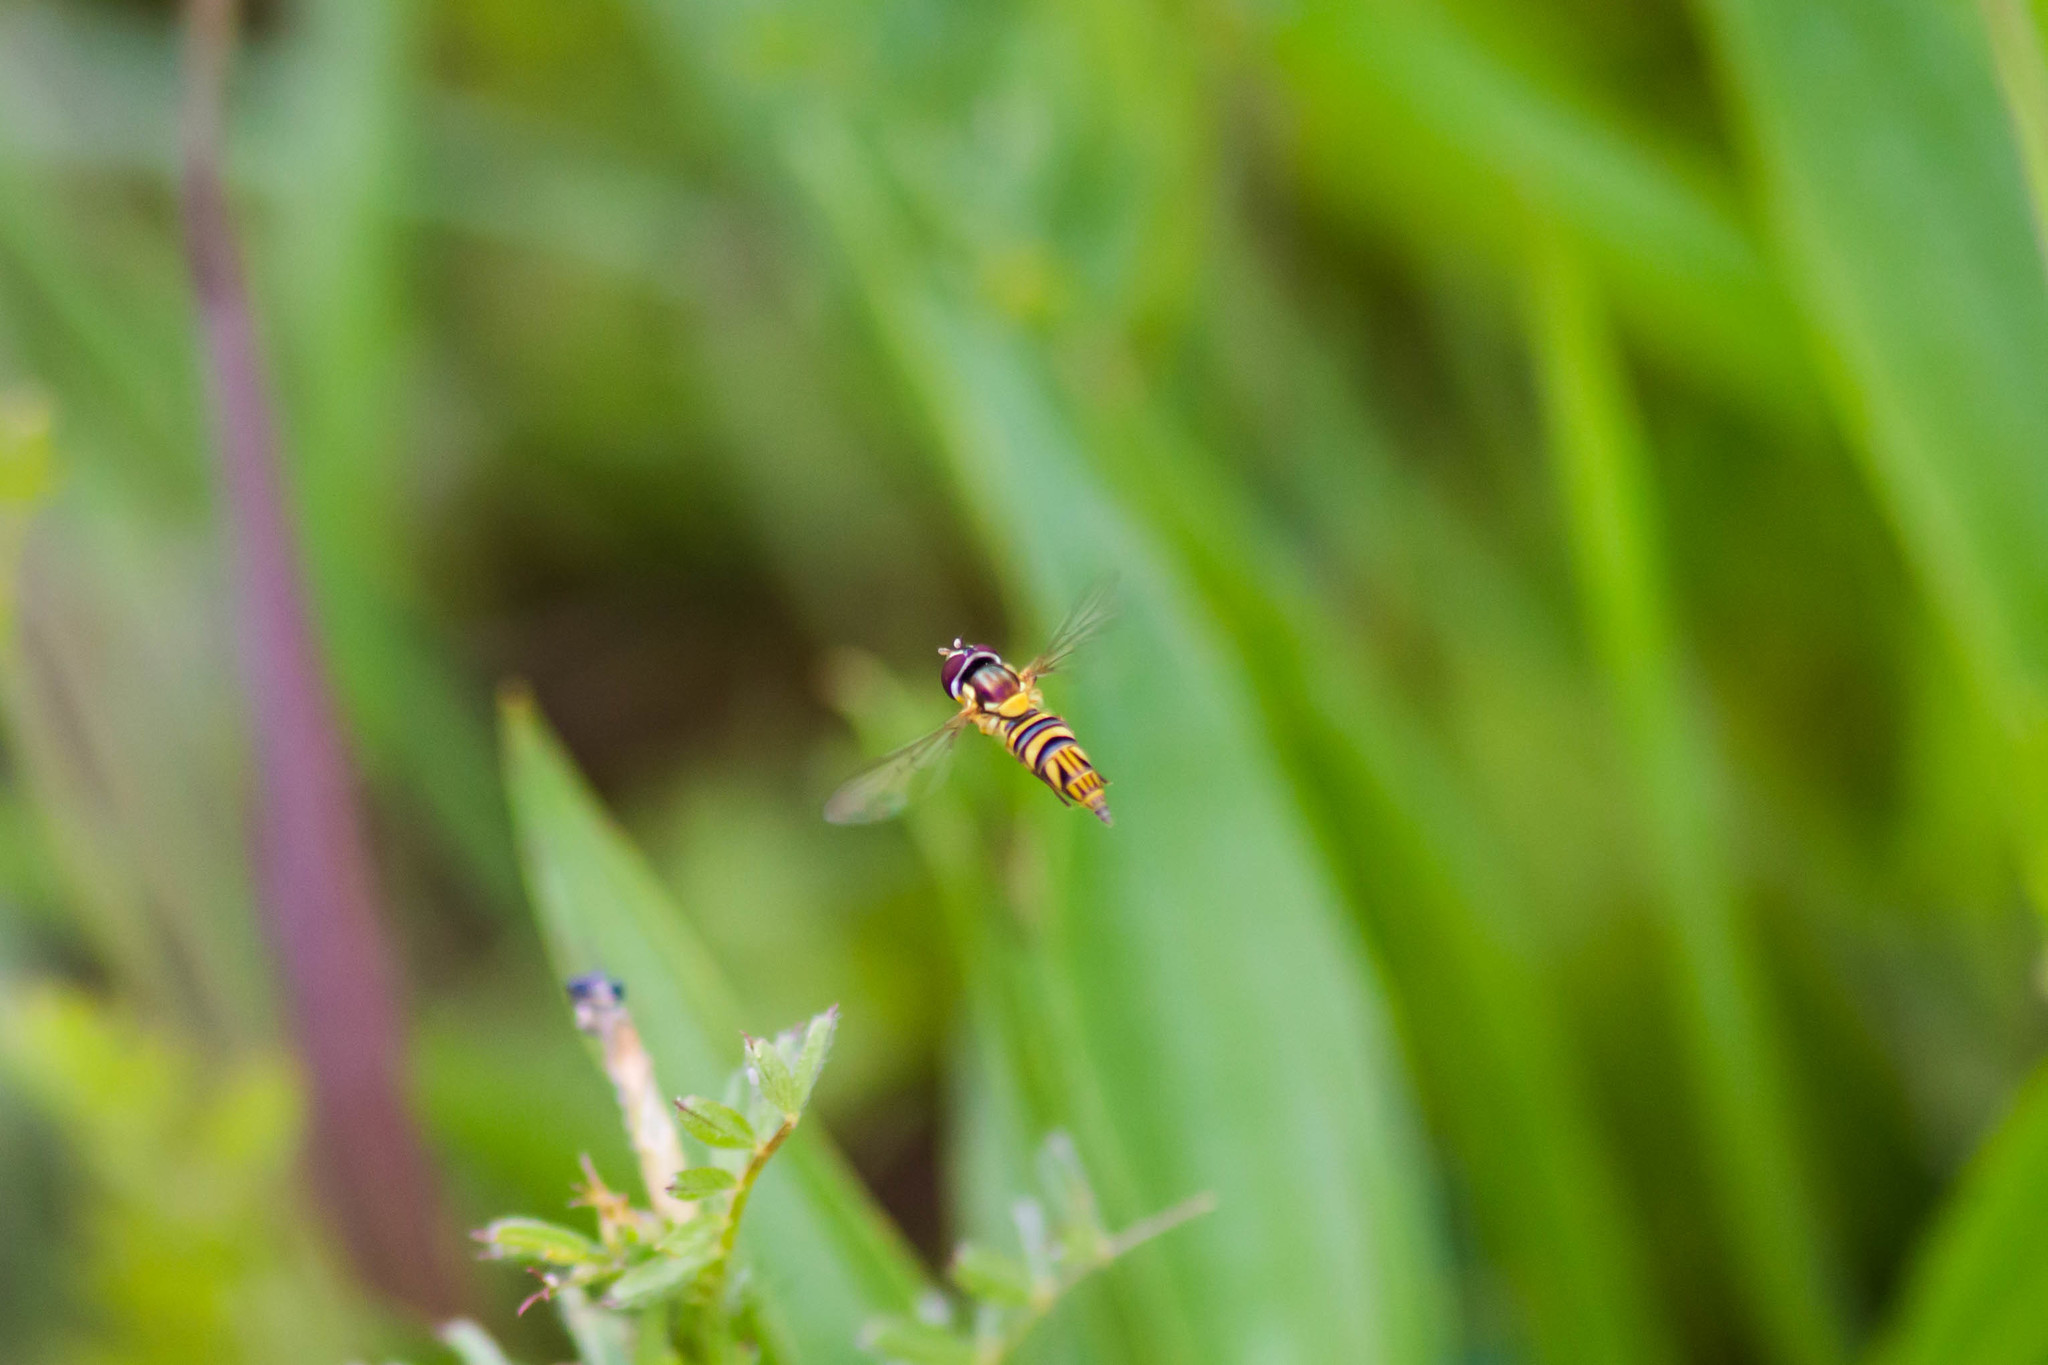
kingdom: Animalia
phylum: Arthropoda
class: Insecta
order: Diptera
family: Syrphidae
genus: Allograpta
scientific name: Allograpta obliqua
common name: Common oblique syrphid
